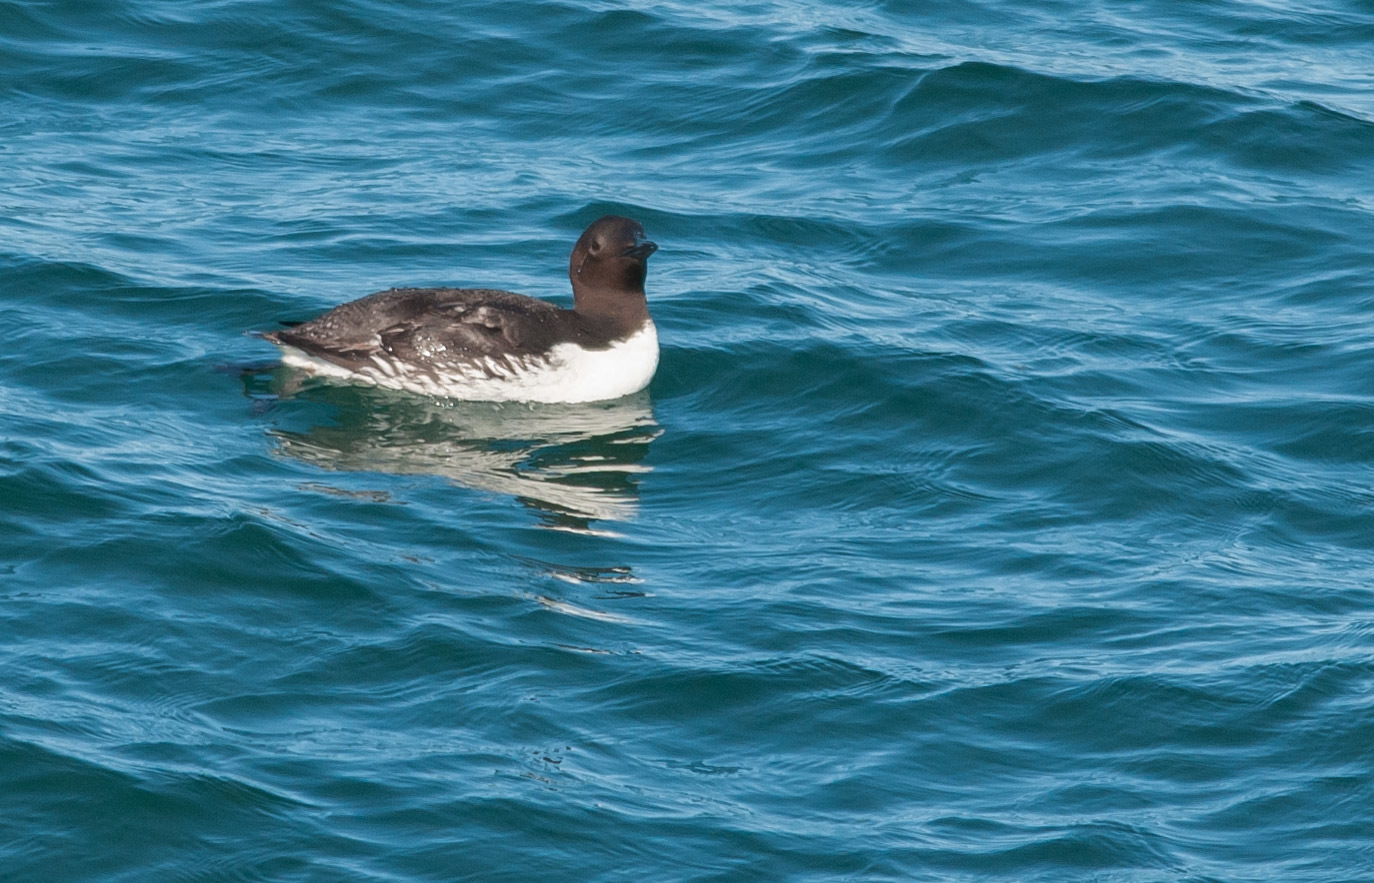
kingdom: Animalia
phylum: Chordata
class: Aves
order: Charadriiformes
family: Alcidae
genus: Uria
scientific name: Uria aalge
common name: Common murre
